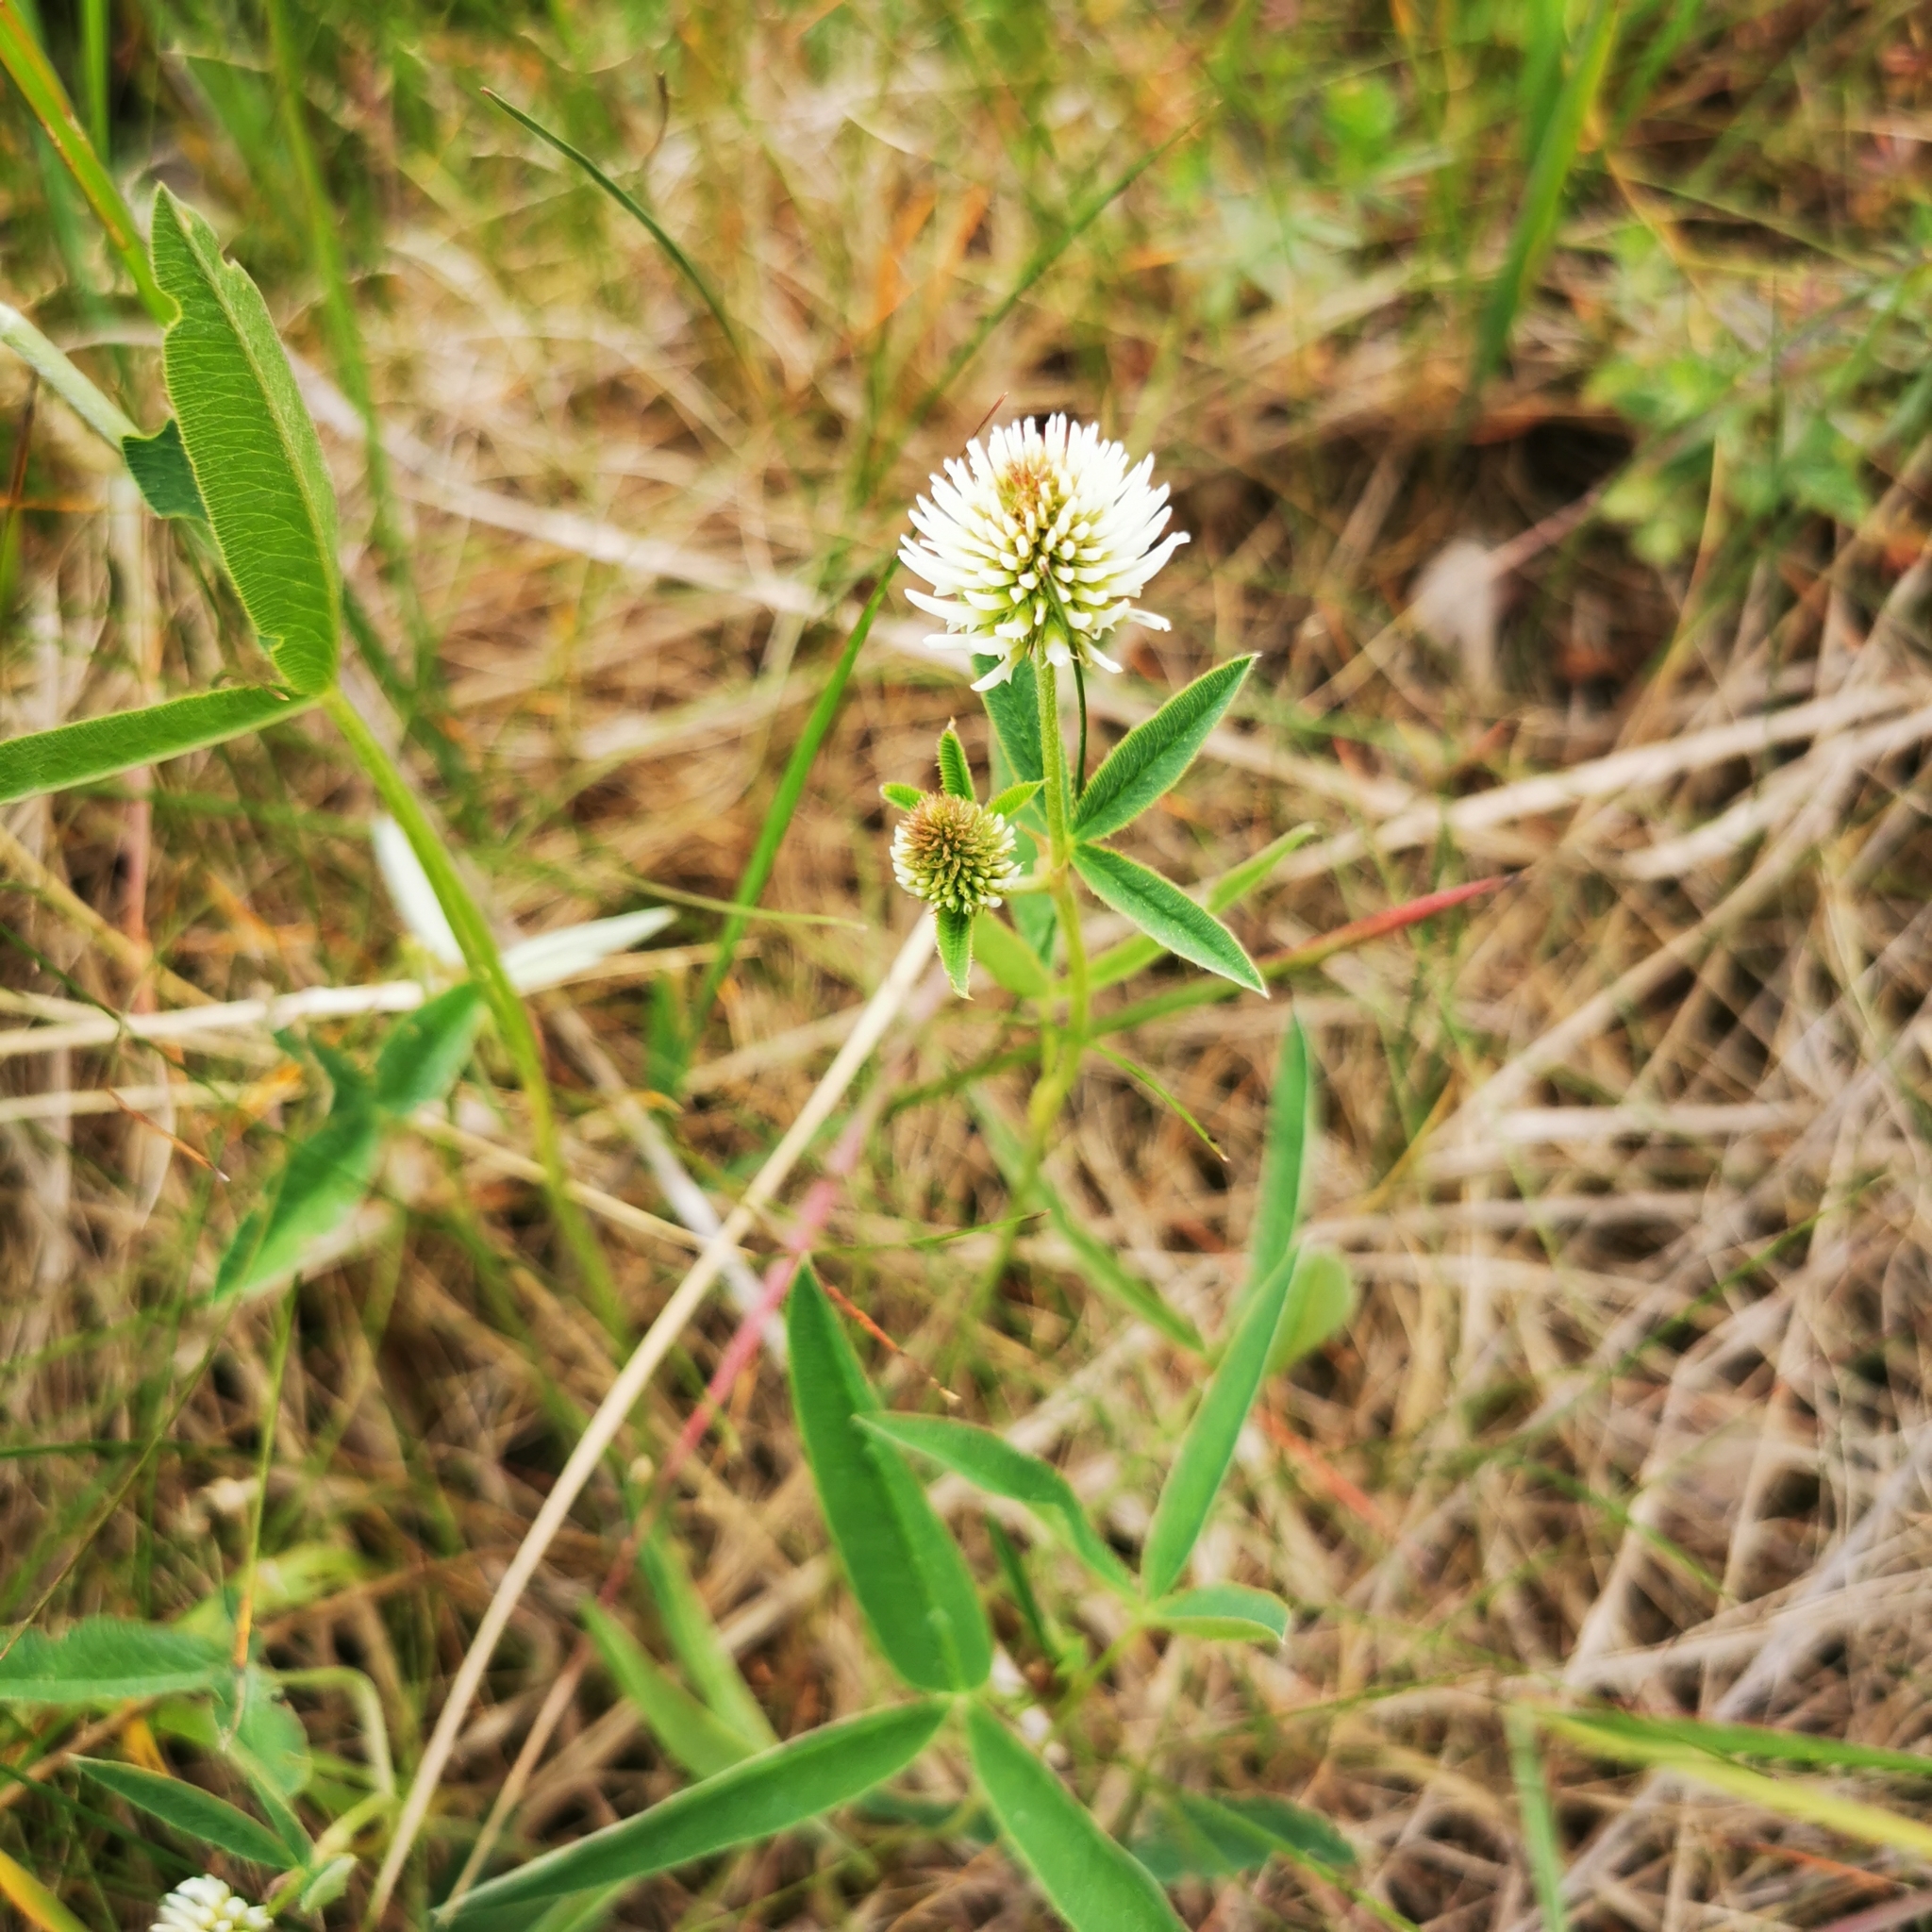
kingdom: Plantae
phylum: Tracheophyta
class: Magnoliopsida
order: Fabales
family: Fabaceae
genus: Trifolium
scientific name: Trifolium montanum
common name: Mountain clover
